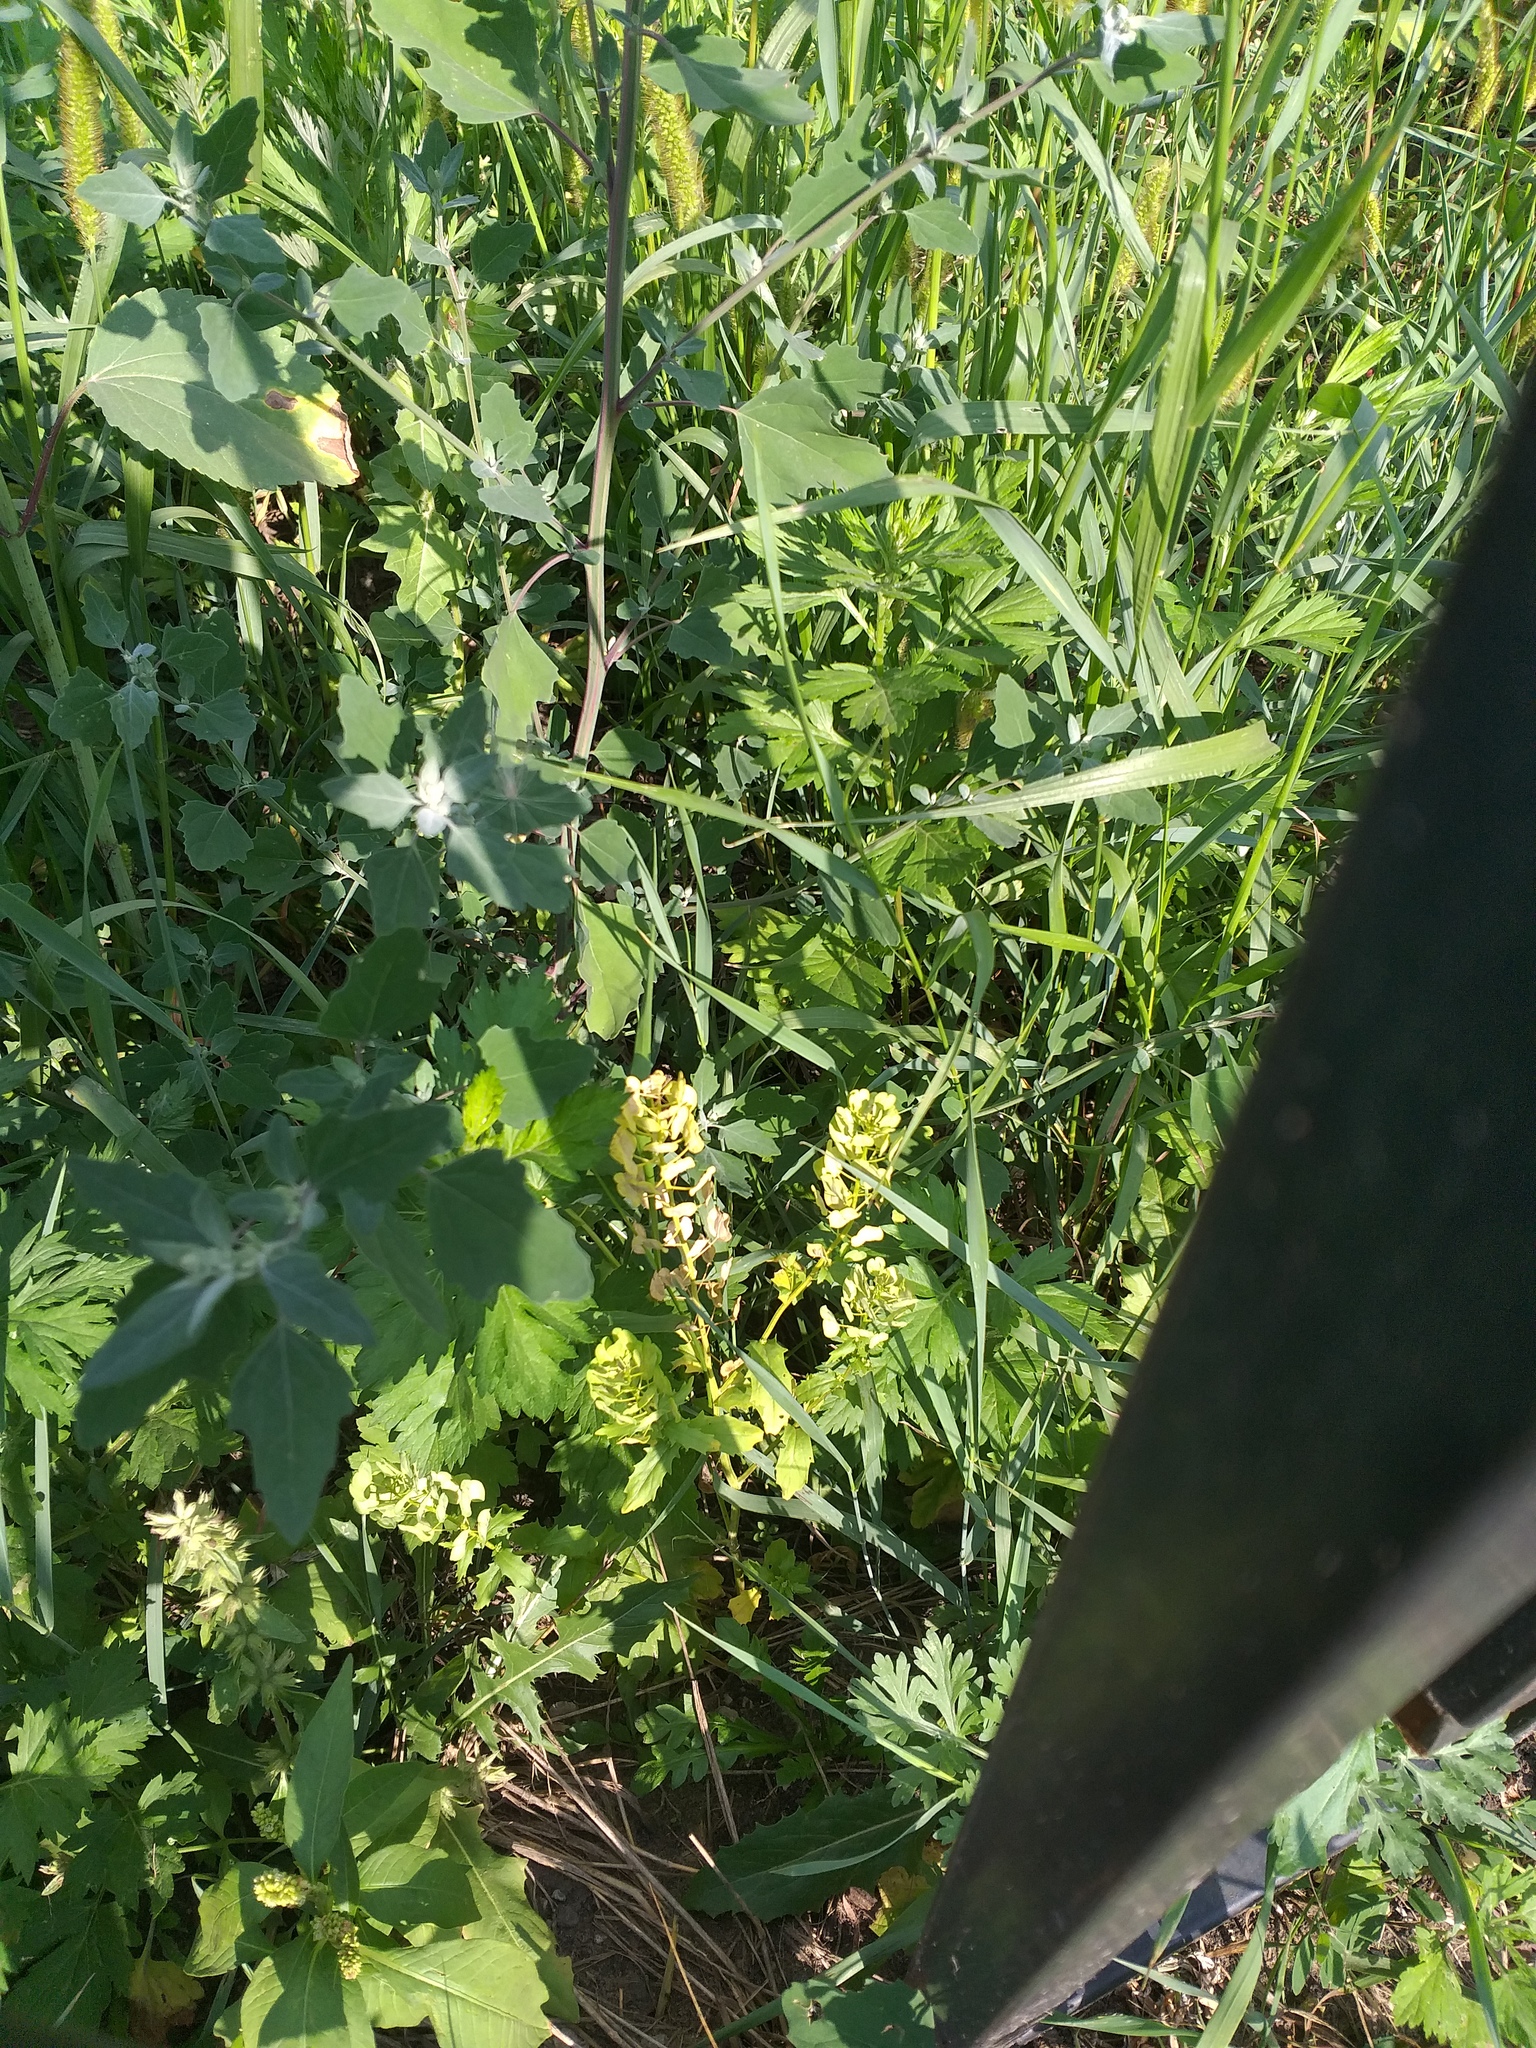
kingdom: Plantae
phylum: Tracheophyta
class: Magnoliopsida
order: Brassicales
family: Brassicaceae
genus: Thlaspi
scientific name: Thlaspi arvense
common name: Field pennycress
